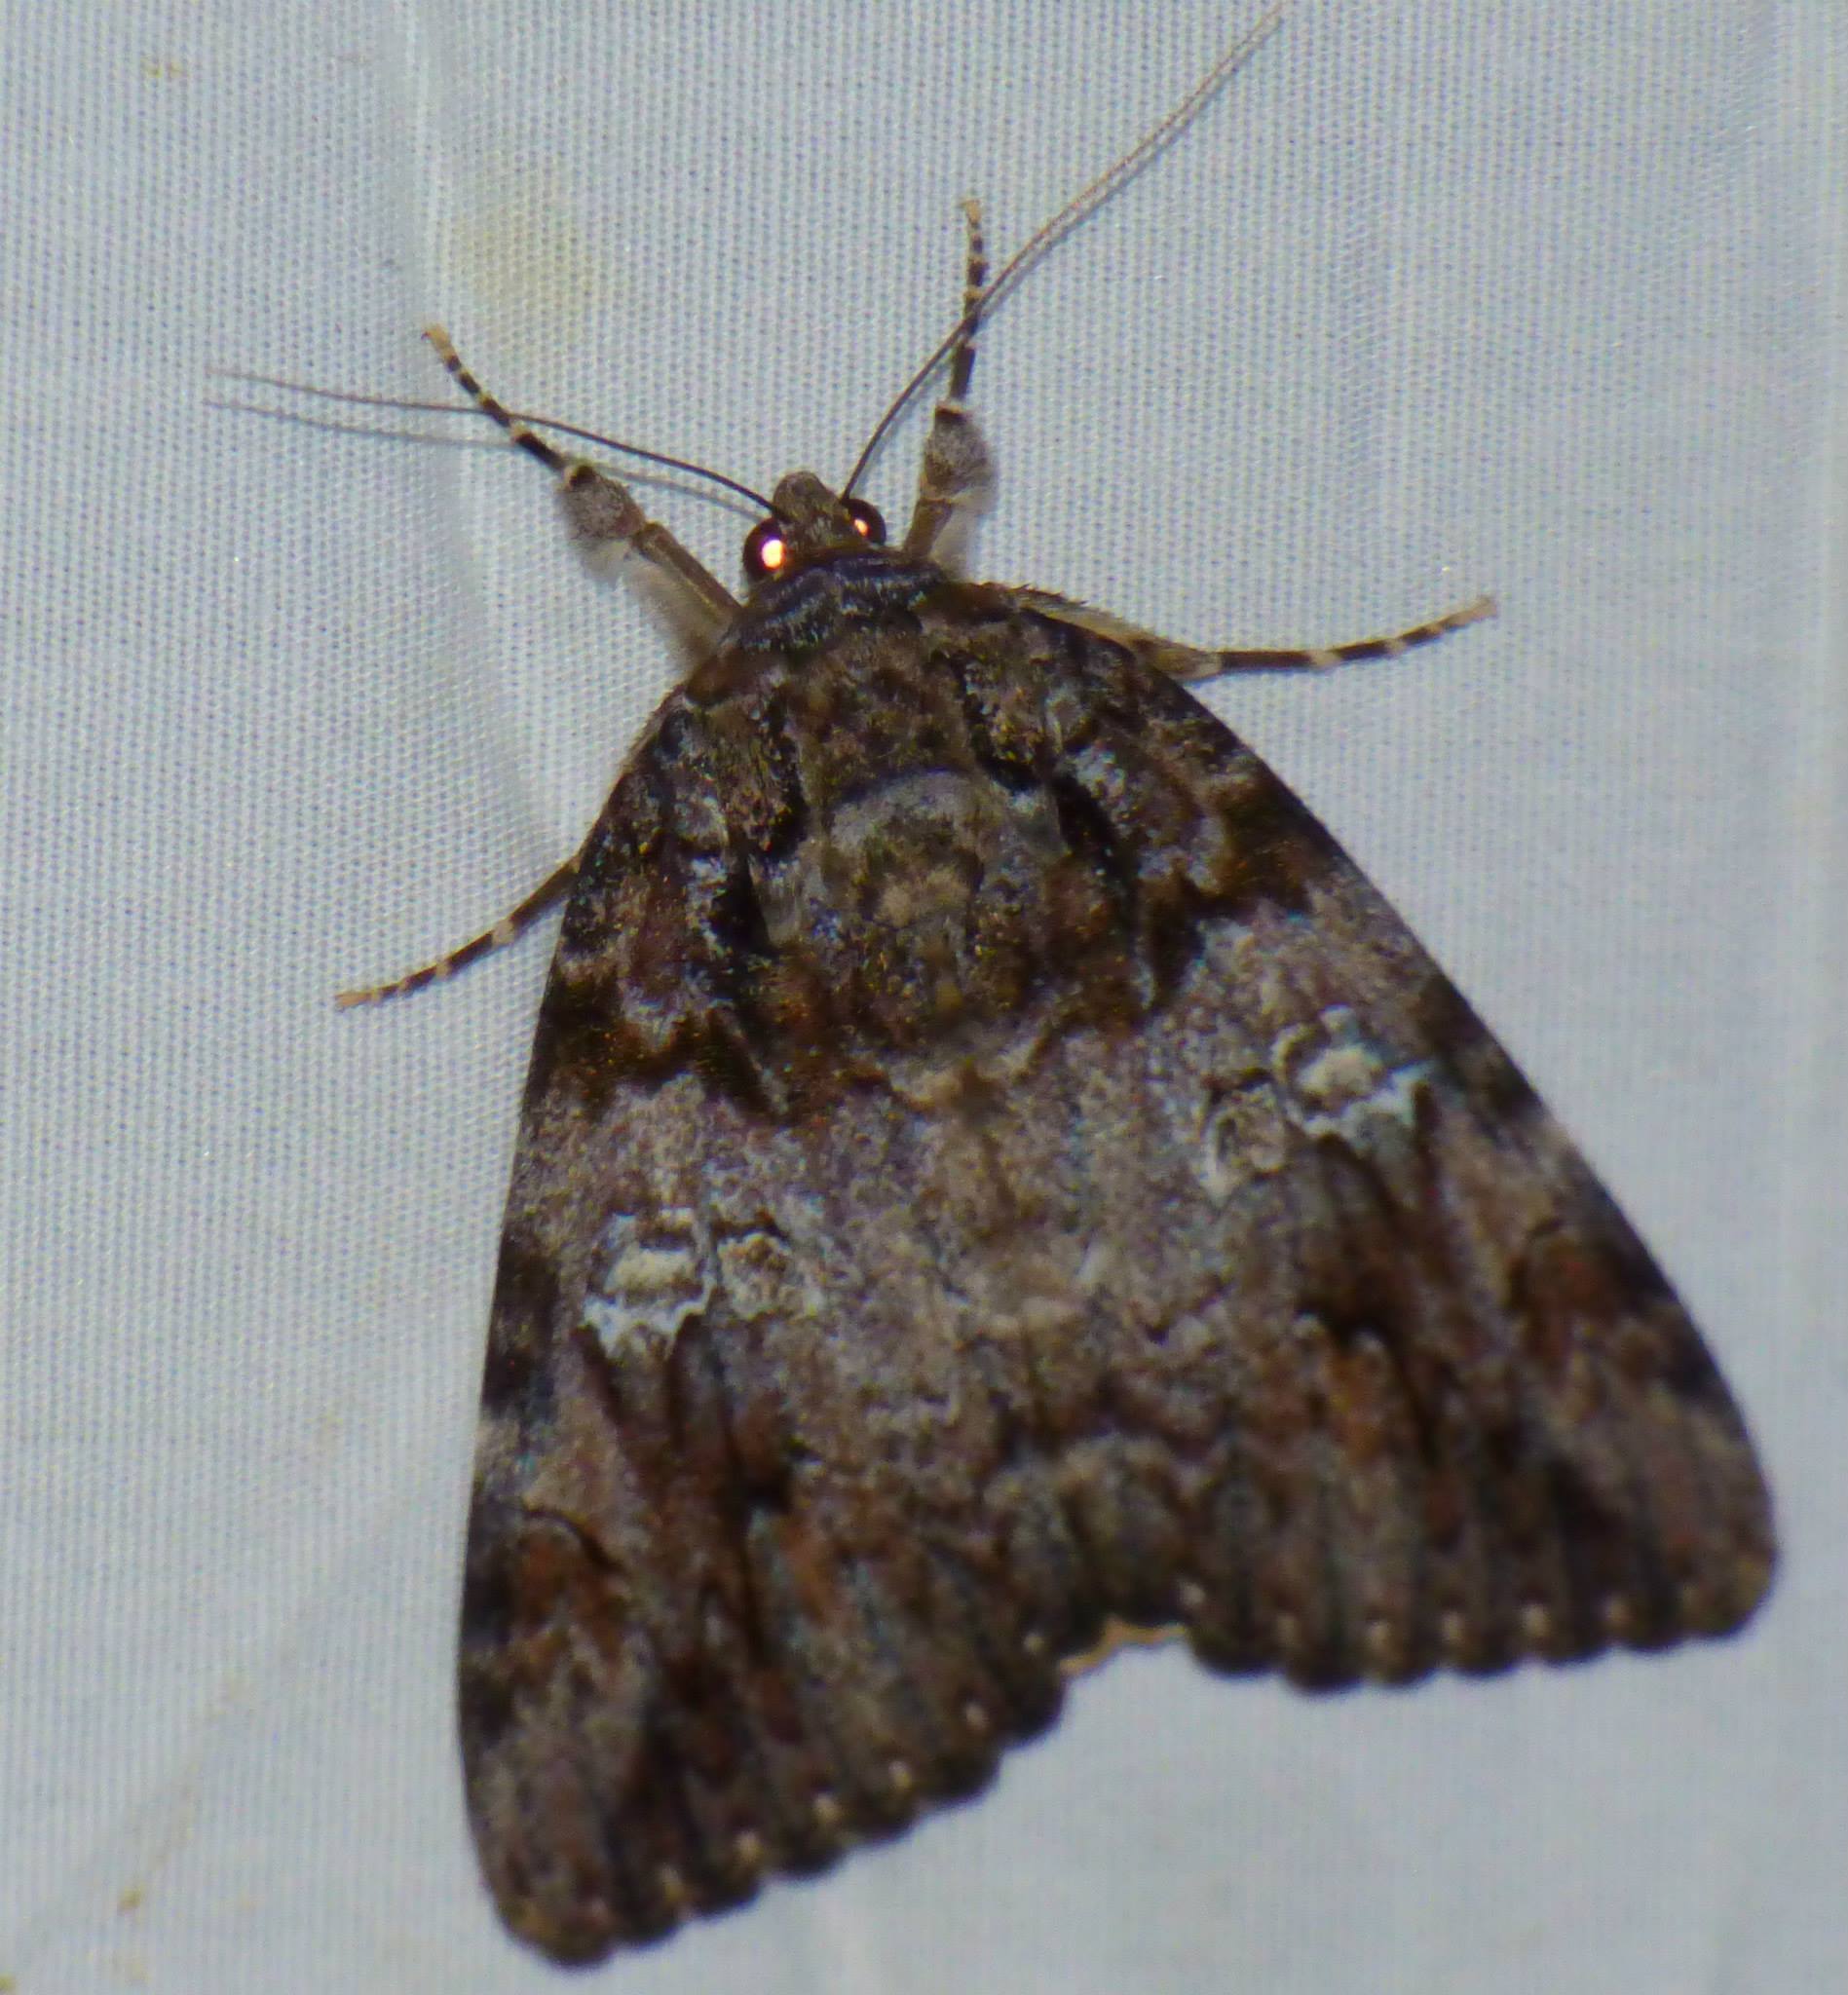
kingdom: Animalia
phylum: Arthropoda
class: Insecta
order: Lepidoptera
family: Erebidae
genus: Catocala
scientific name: Catocala ilia
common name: Ilia underwing
